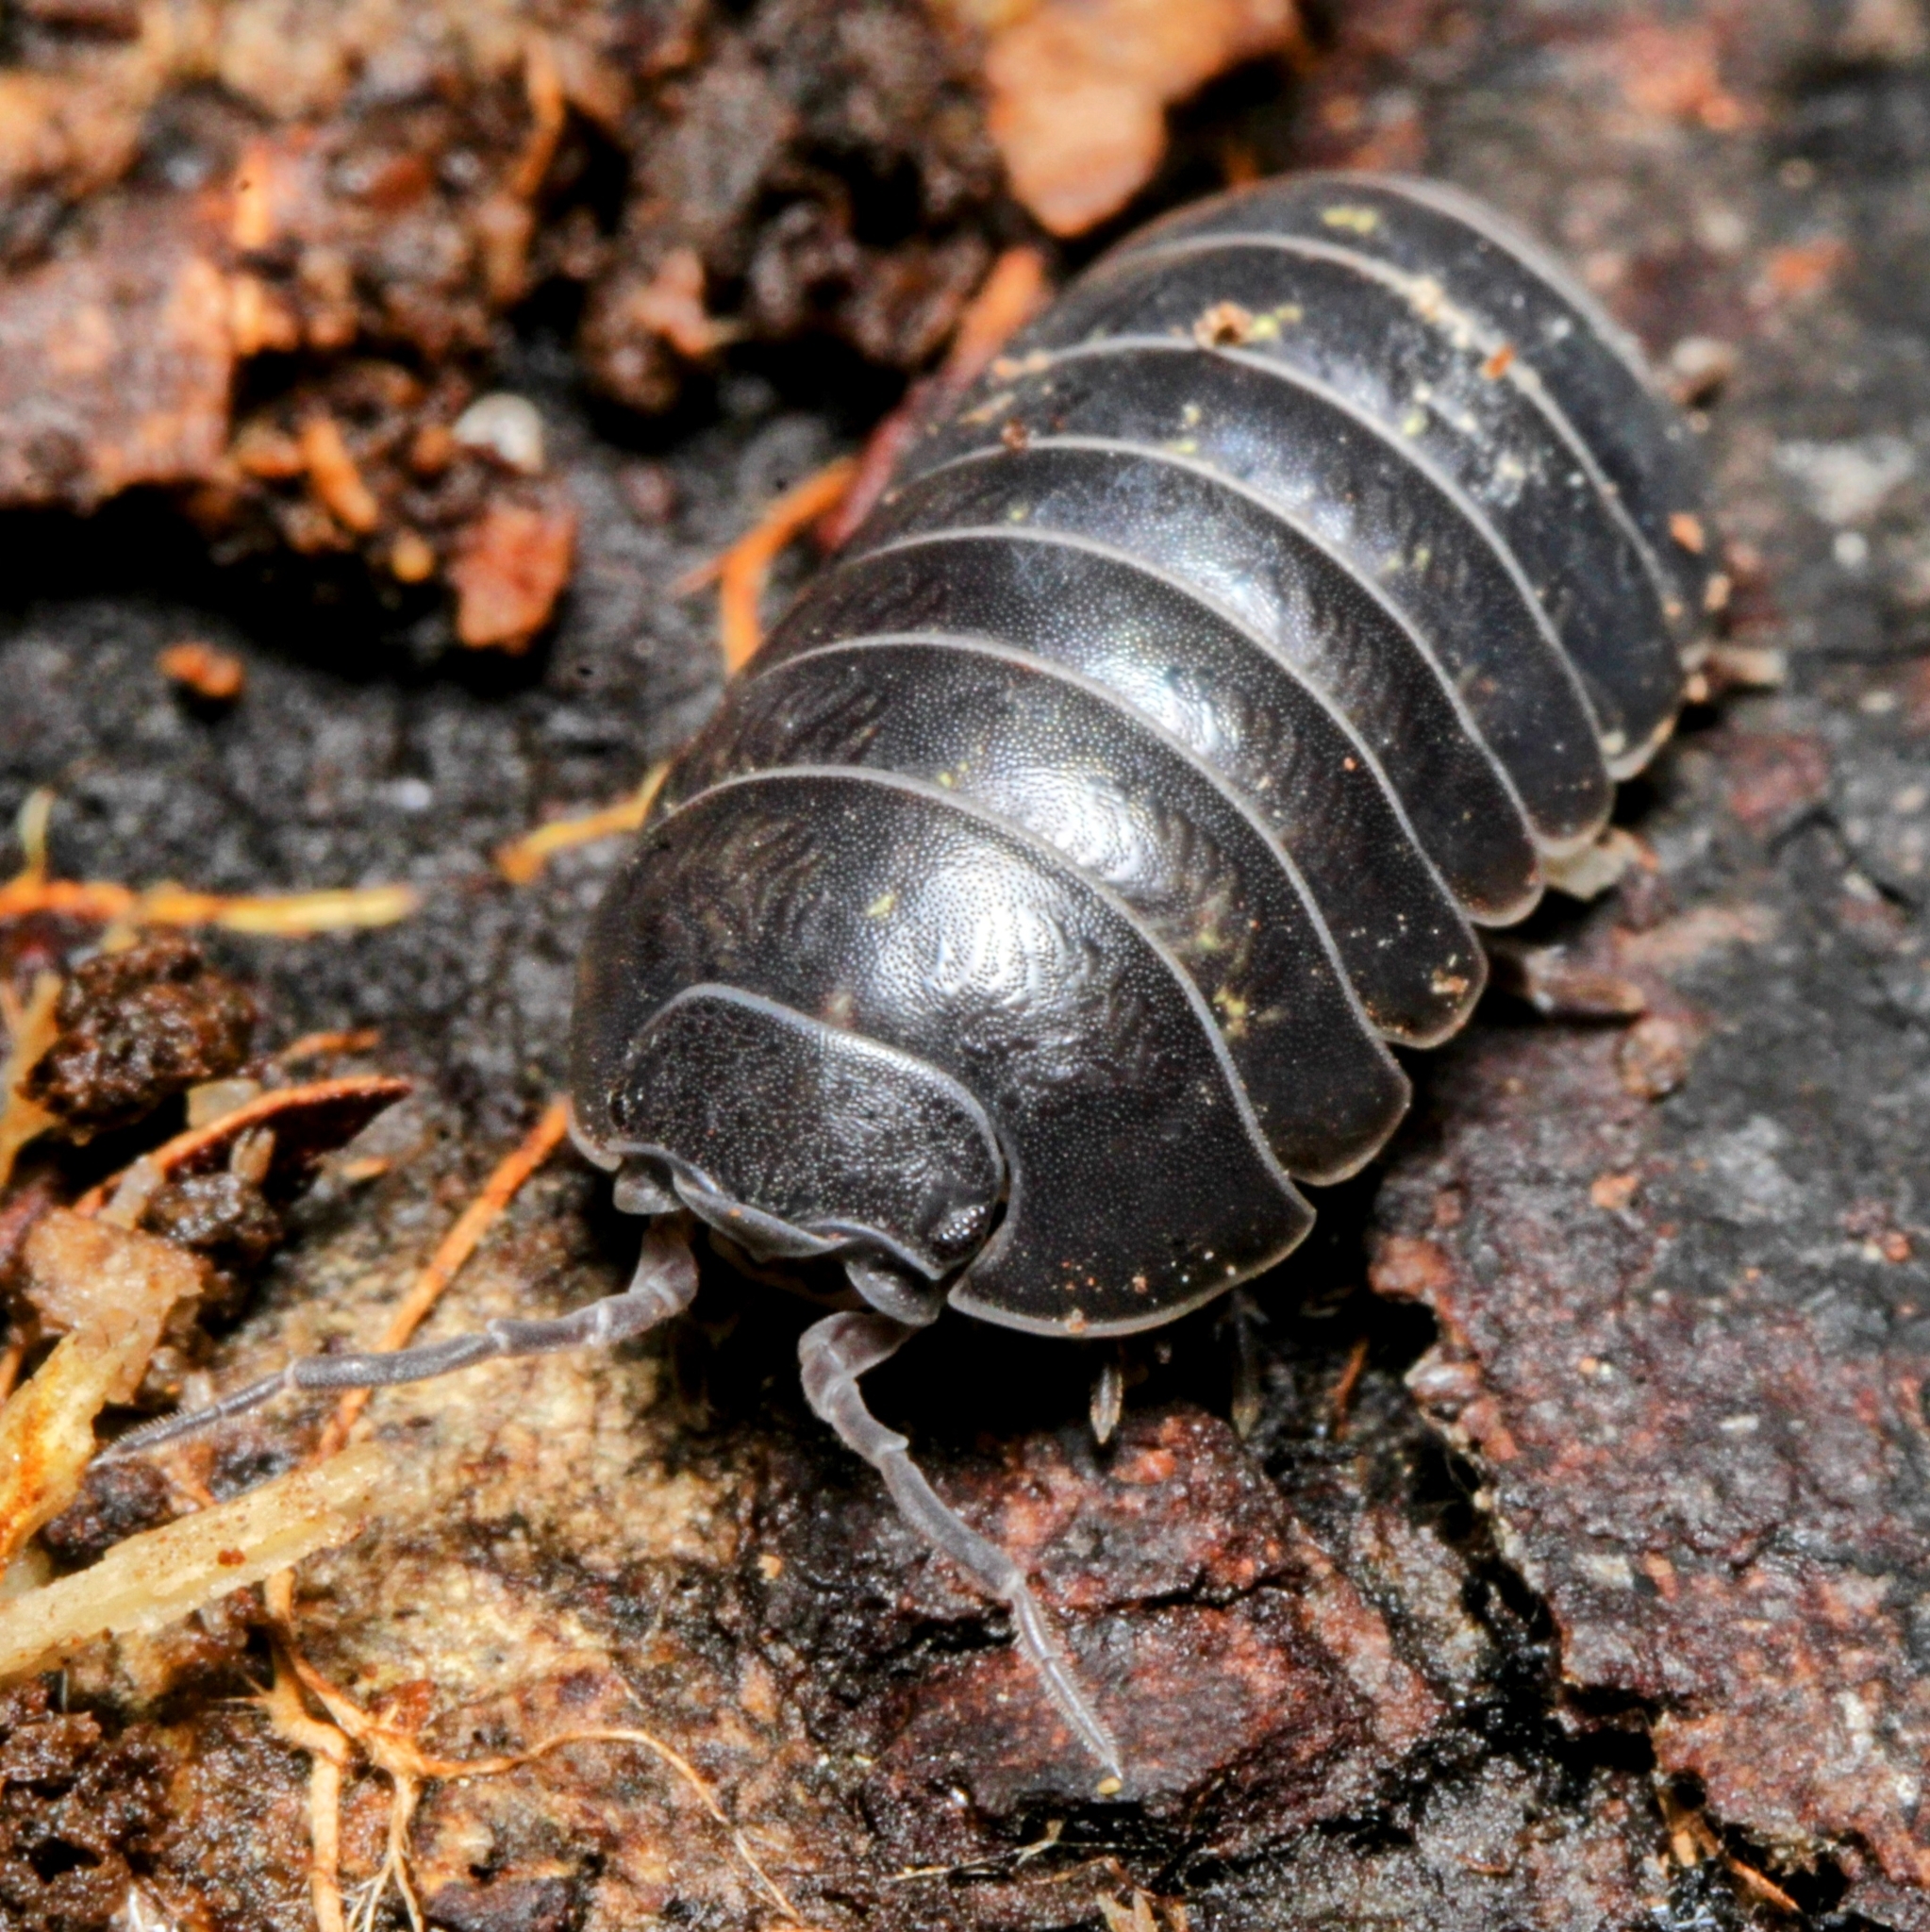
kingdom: Animalia
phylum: Arthropoda
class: Malacostraca
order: Isopoda
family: Armadillidiidae
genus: Armadillidium
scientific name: Armadillidium vulgare
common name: Common pill woodlouse
